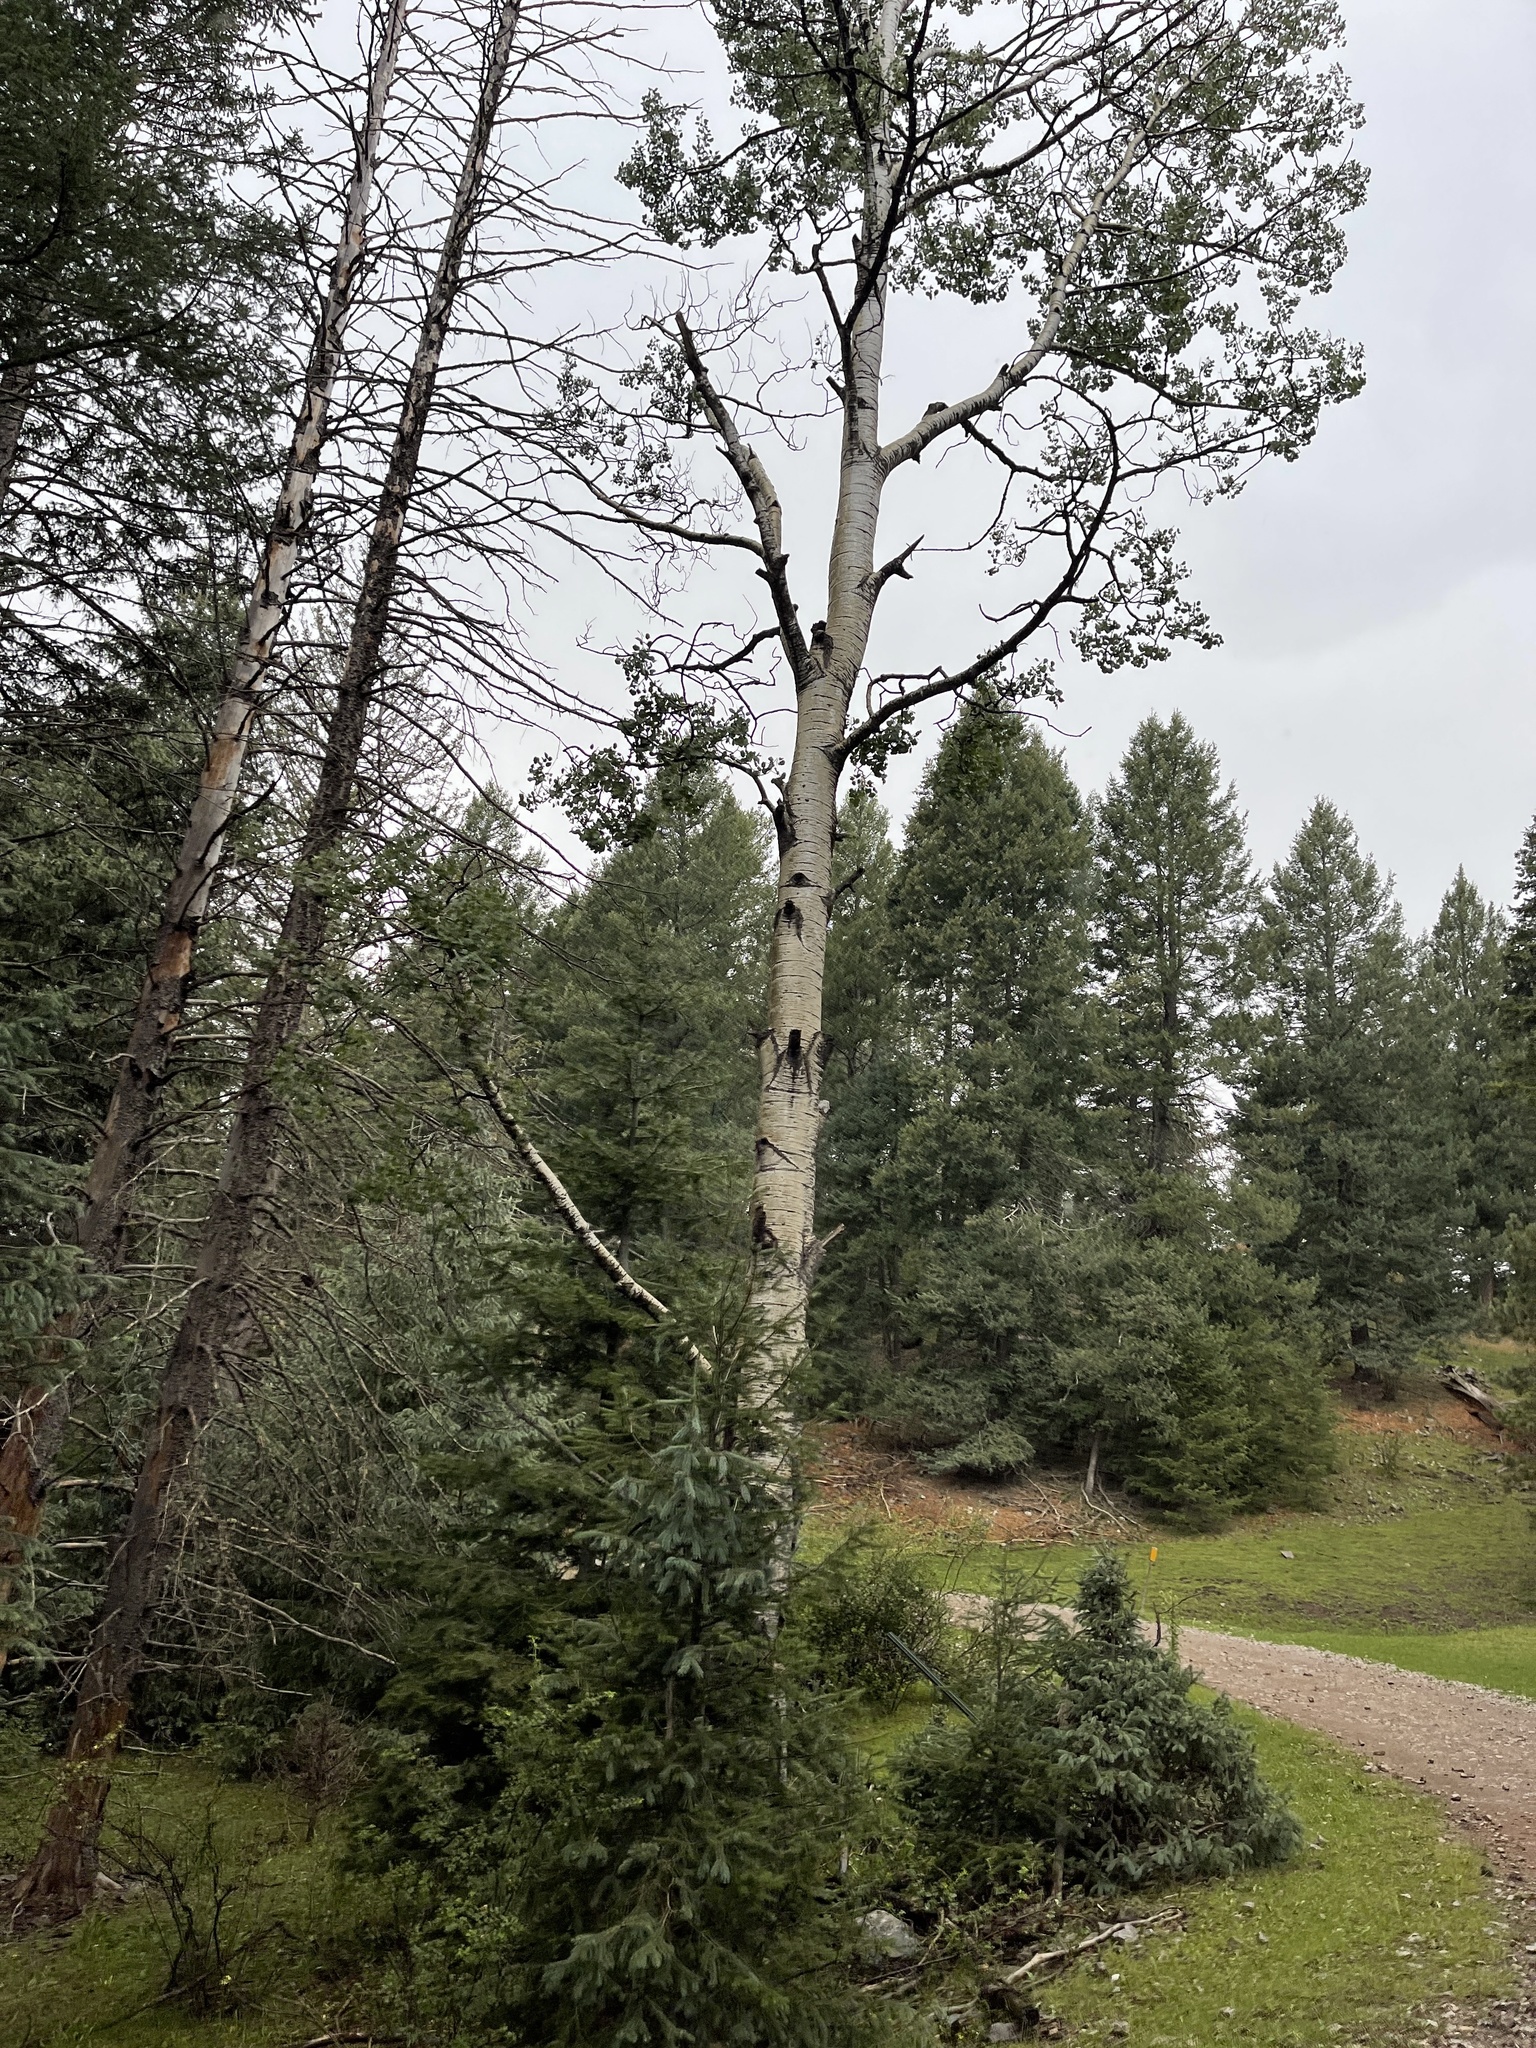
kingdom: Plantae
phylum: Tracheophyta
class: Magnoliopsida
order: Malpighiales
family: Salicaceae
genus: Populus
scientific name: Populus tremuloides
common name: Quaking aspen
